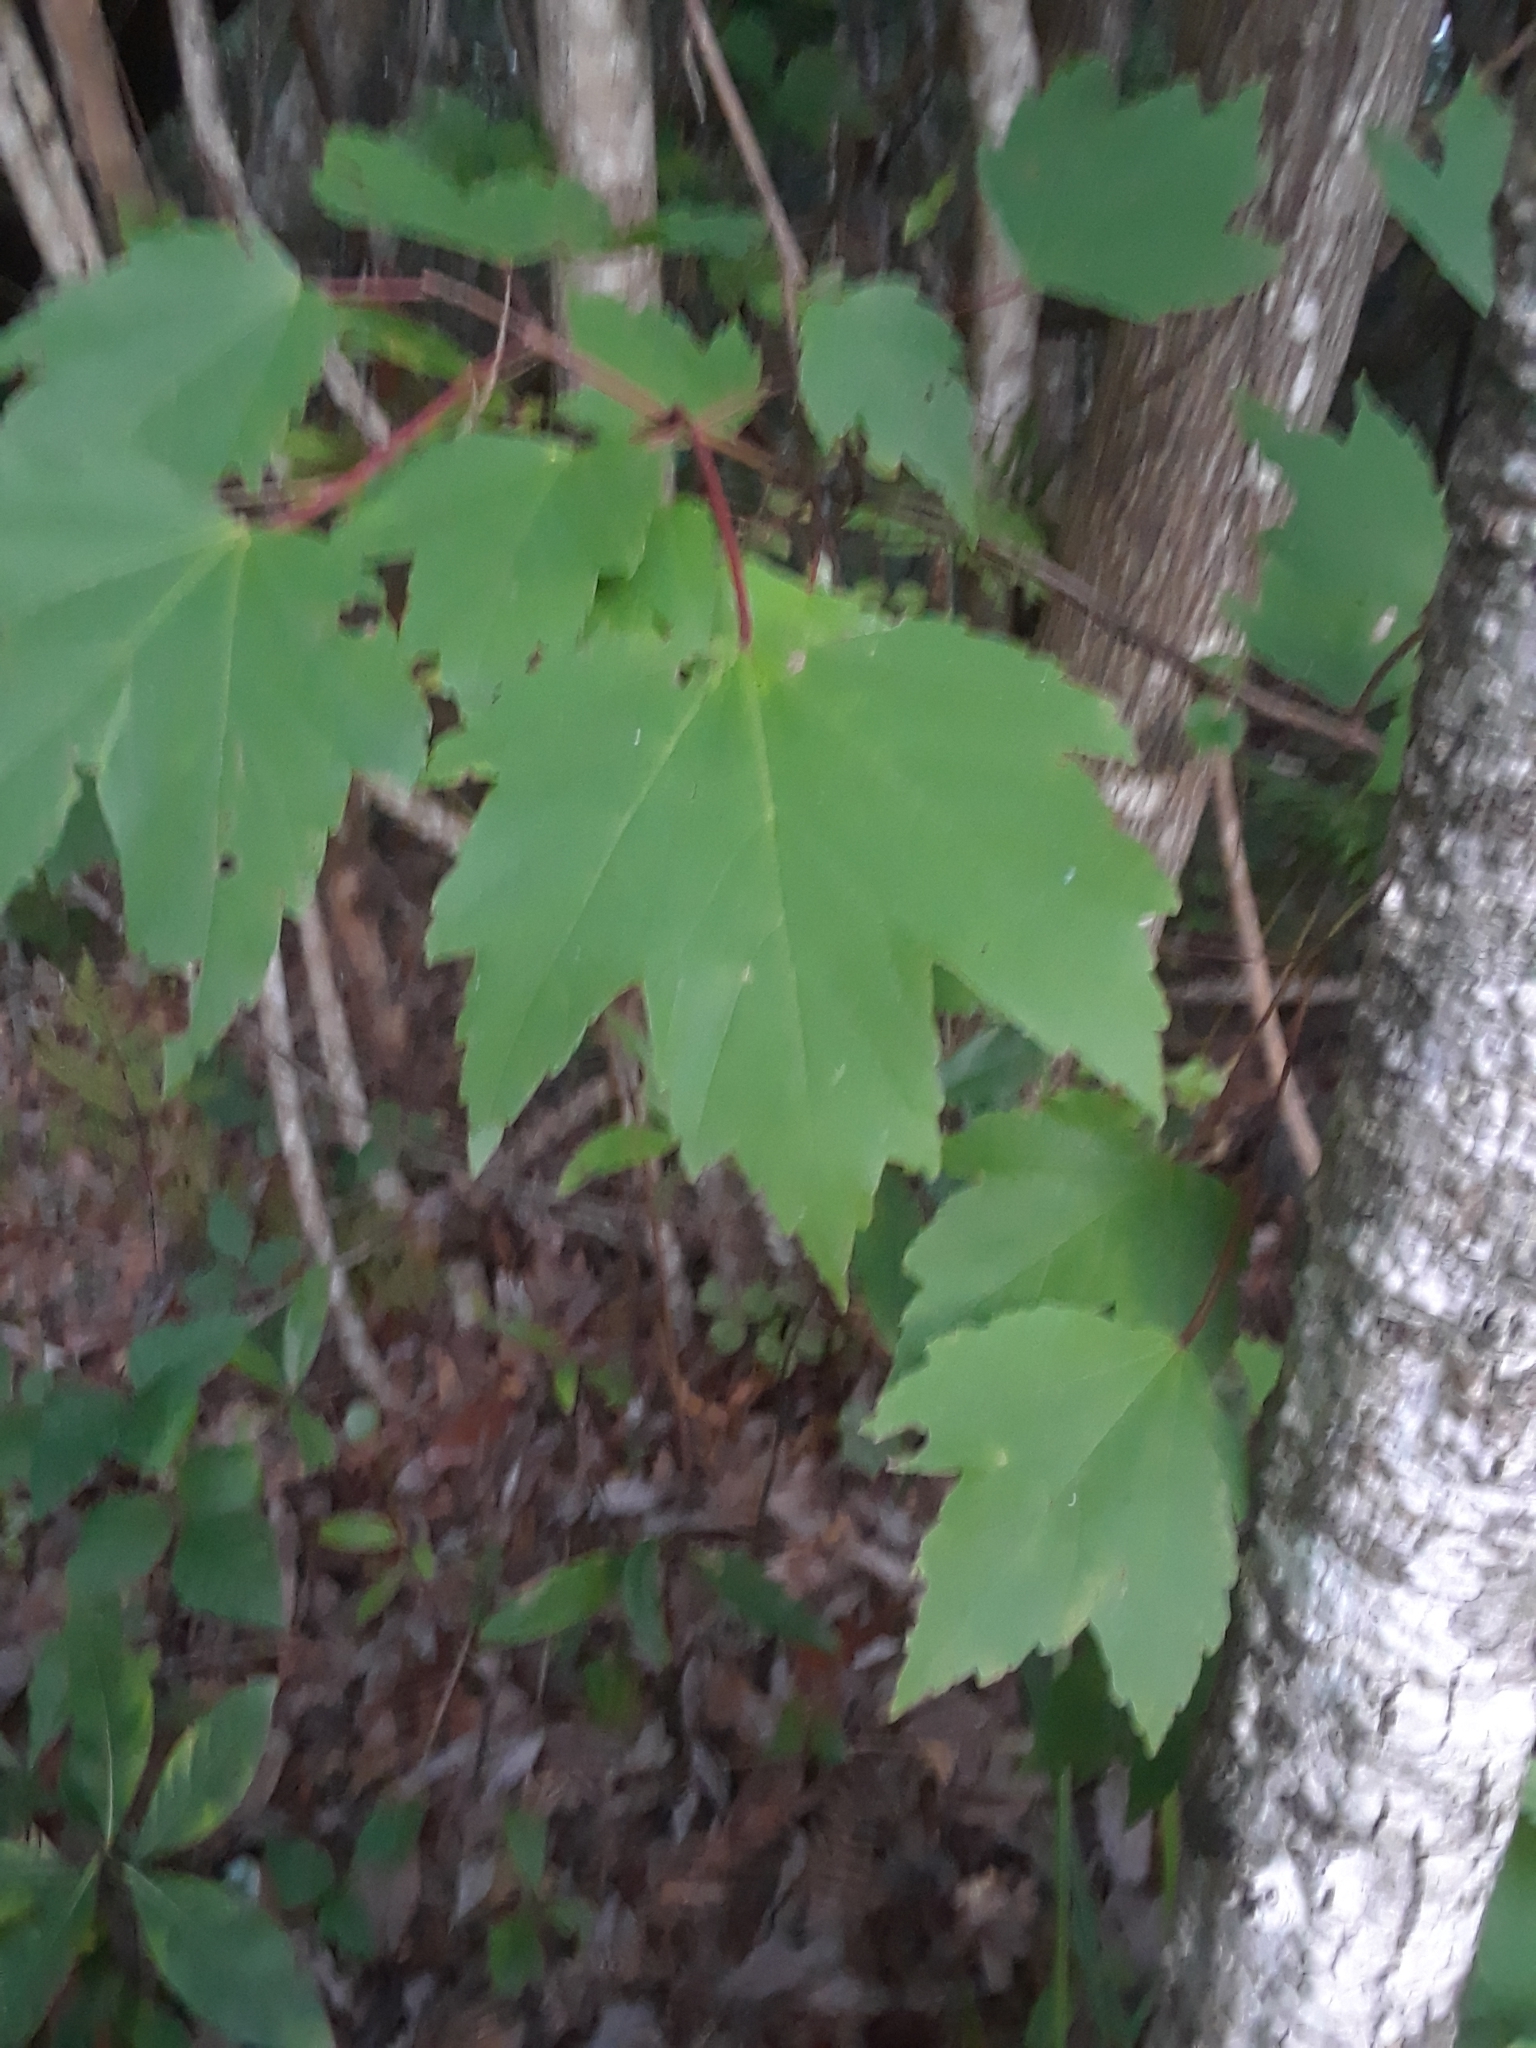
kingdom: Plantae
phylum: Tracheophyta
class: Magnoliopsida
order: Sapindales
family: Sapindaceae
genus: Acer
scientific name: Acer rubrum
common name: Red maple
